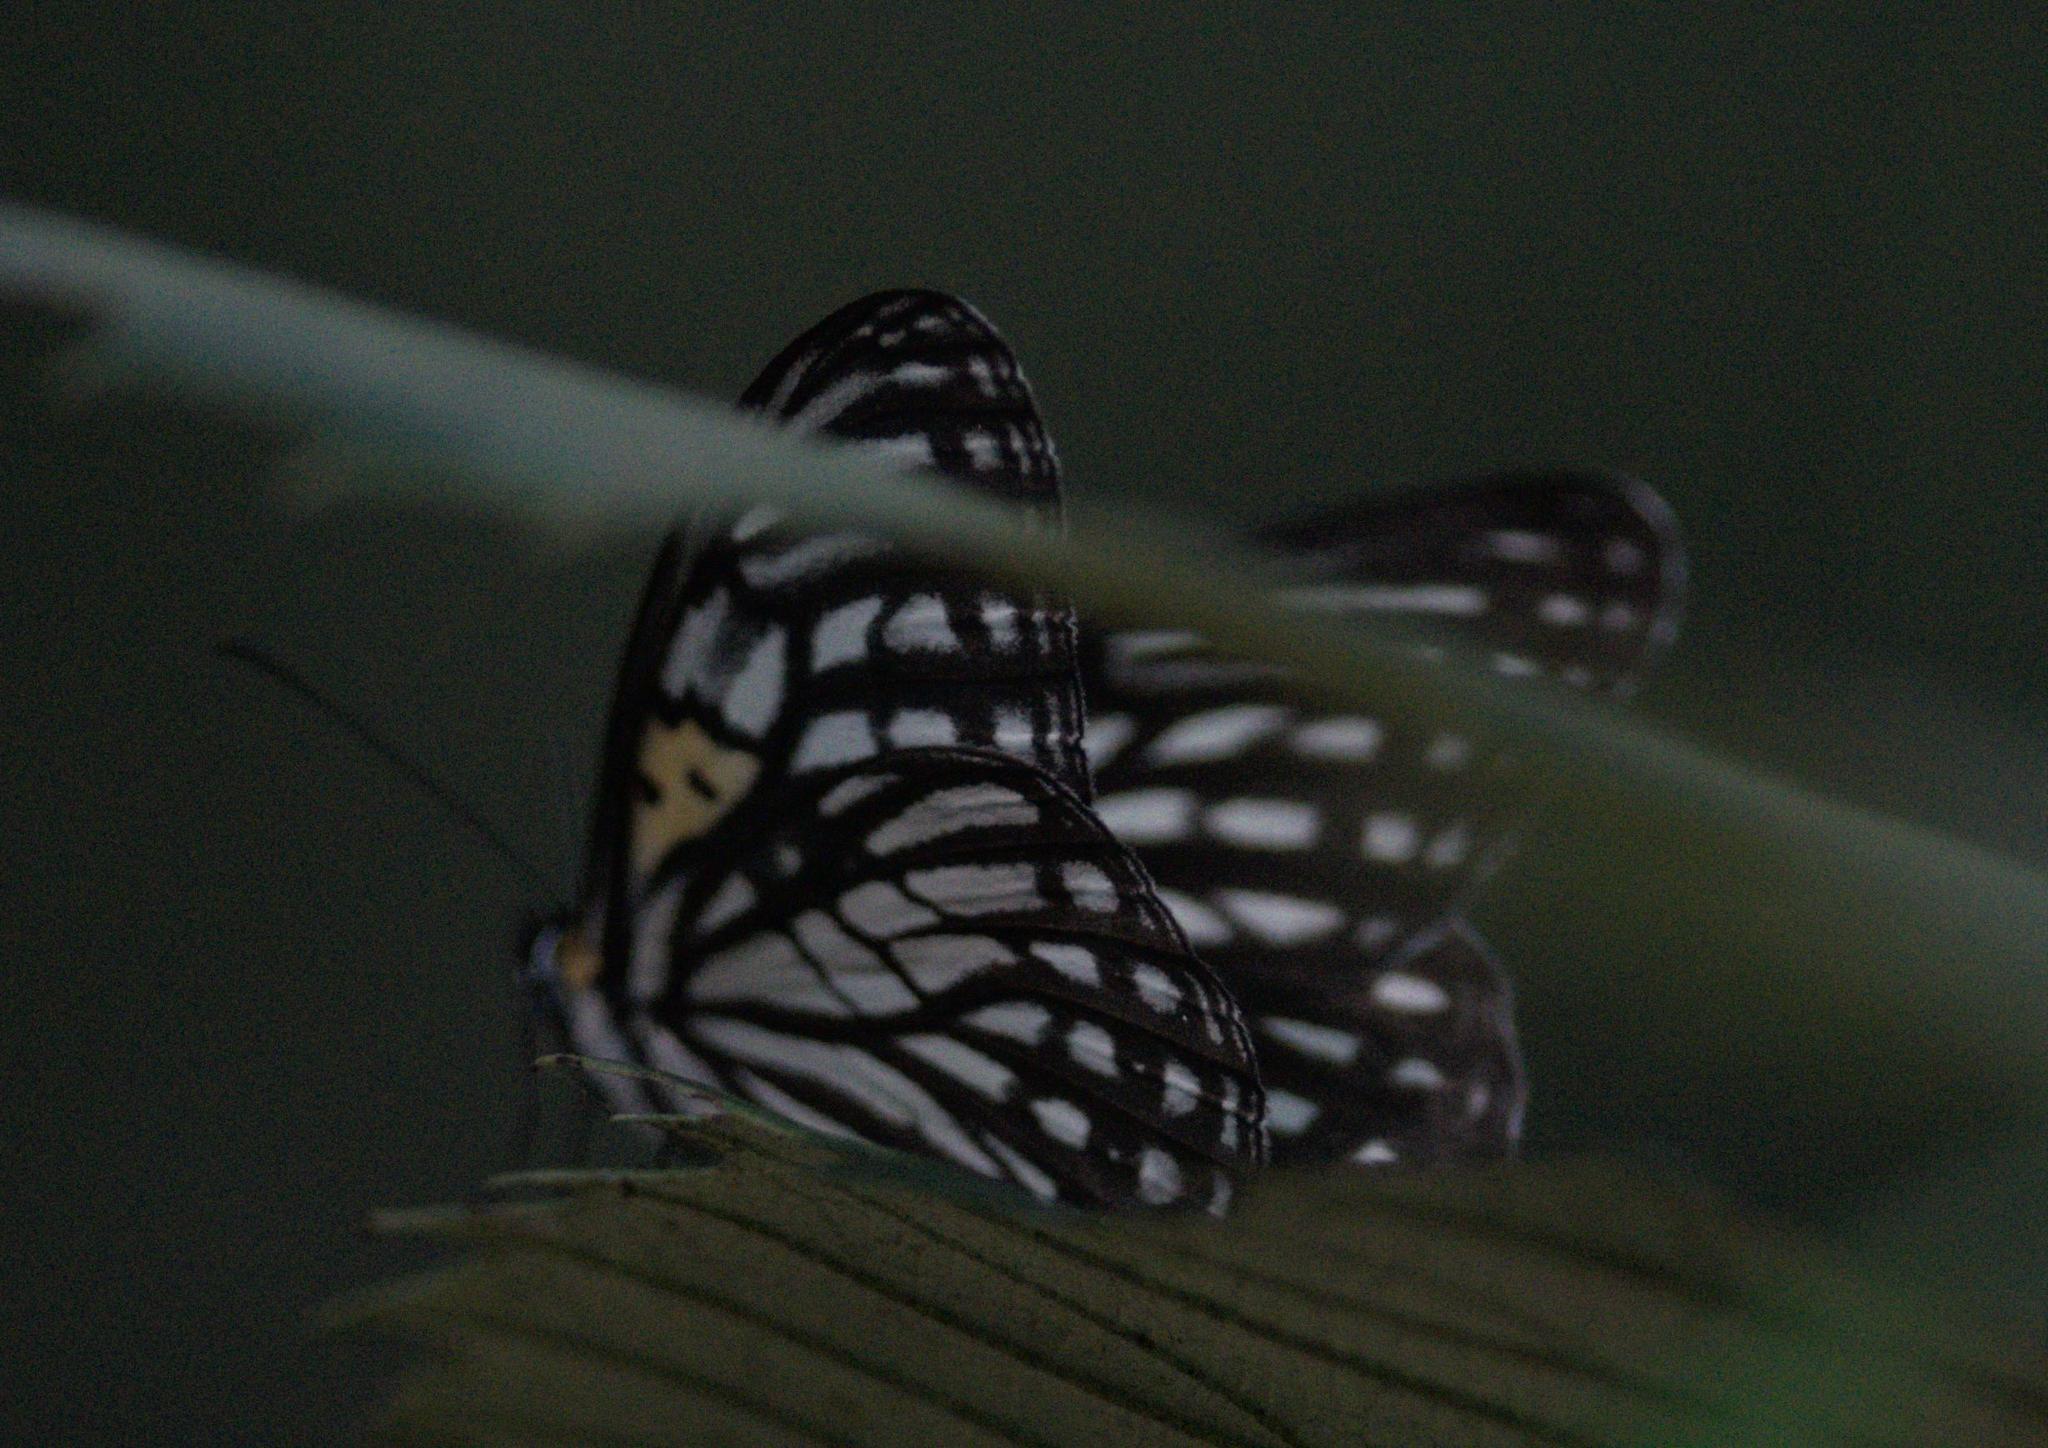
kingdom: Animalia
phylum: Arthropoda
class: Insecta
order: Lepidoptera
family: Nymphalidae
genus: Orinoma
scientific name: Orinoma damaris
